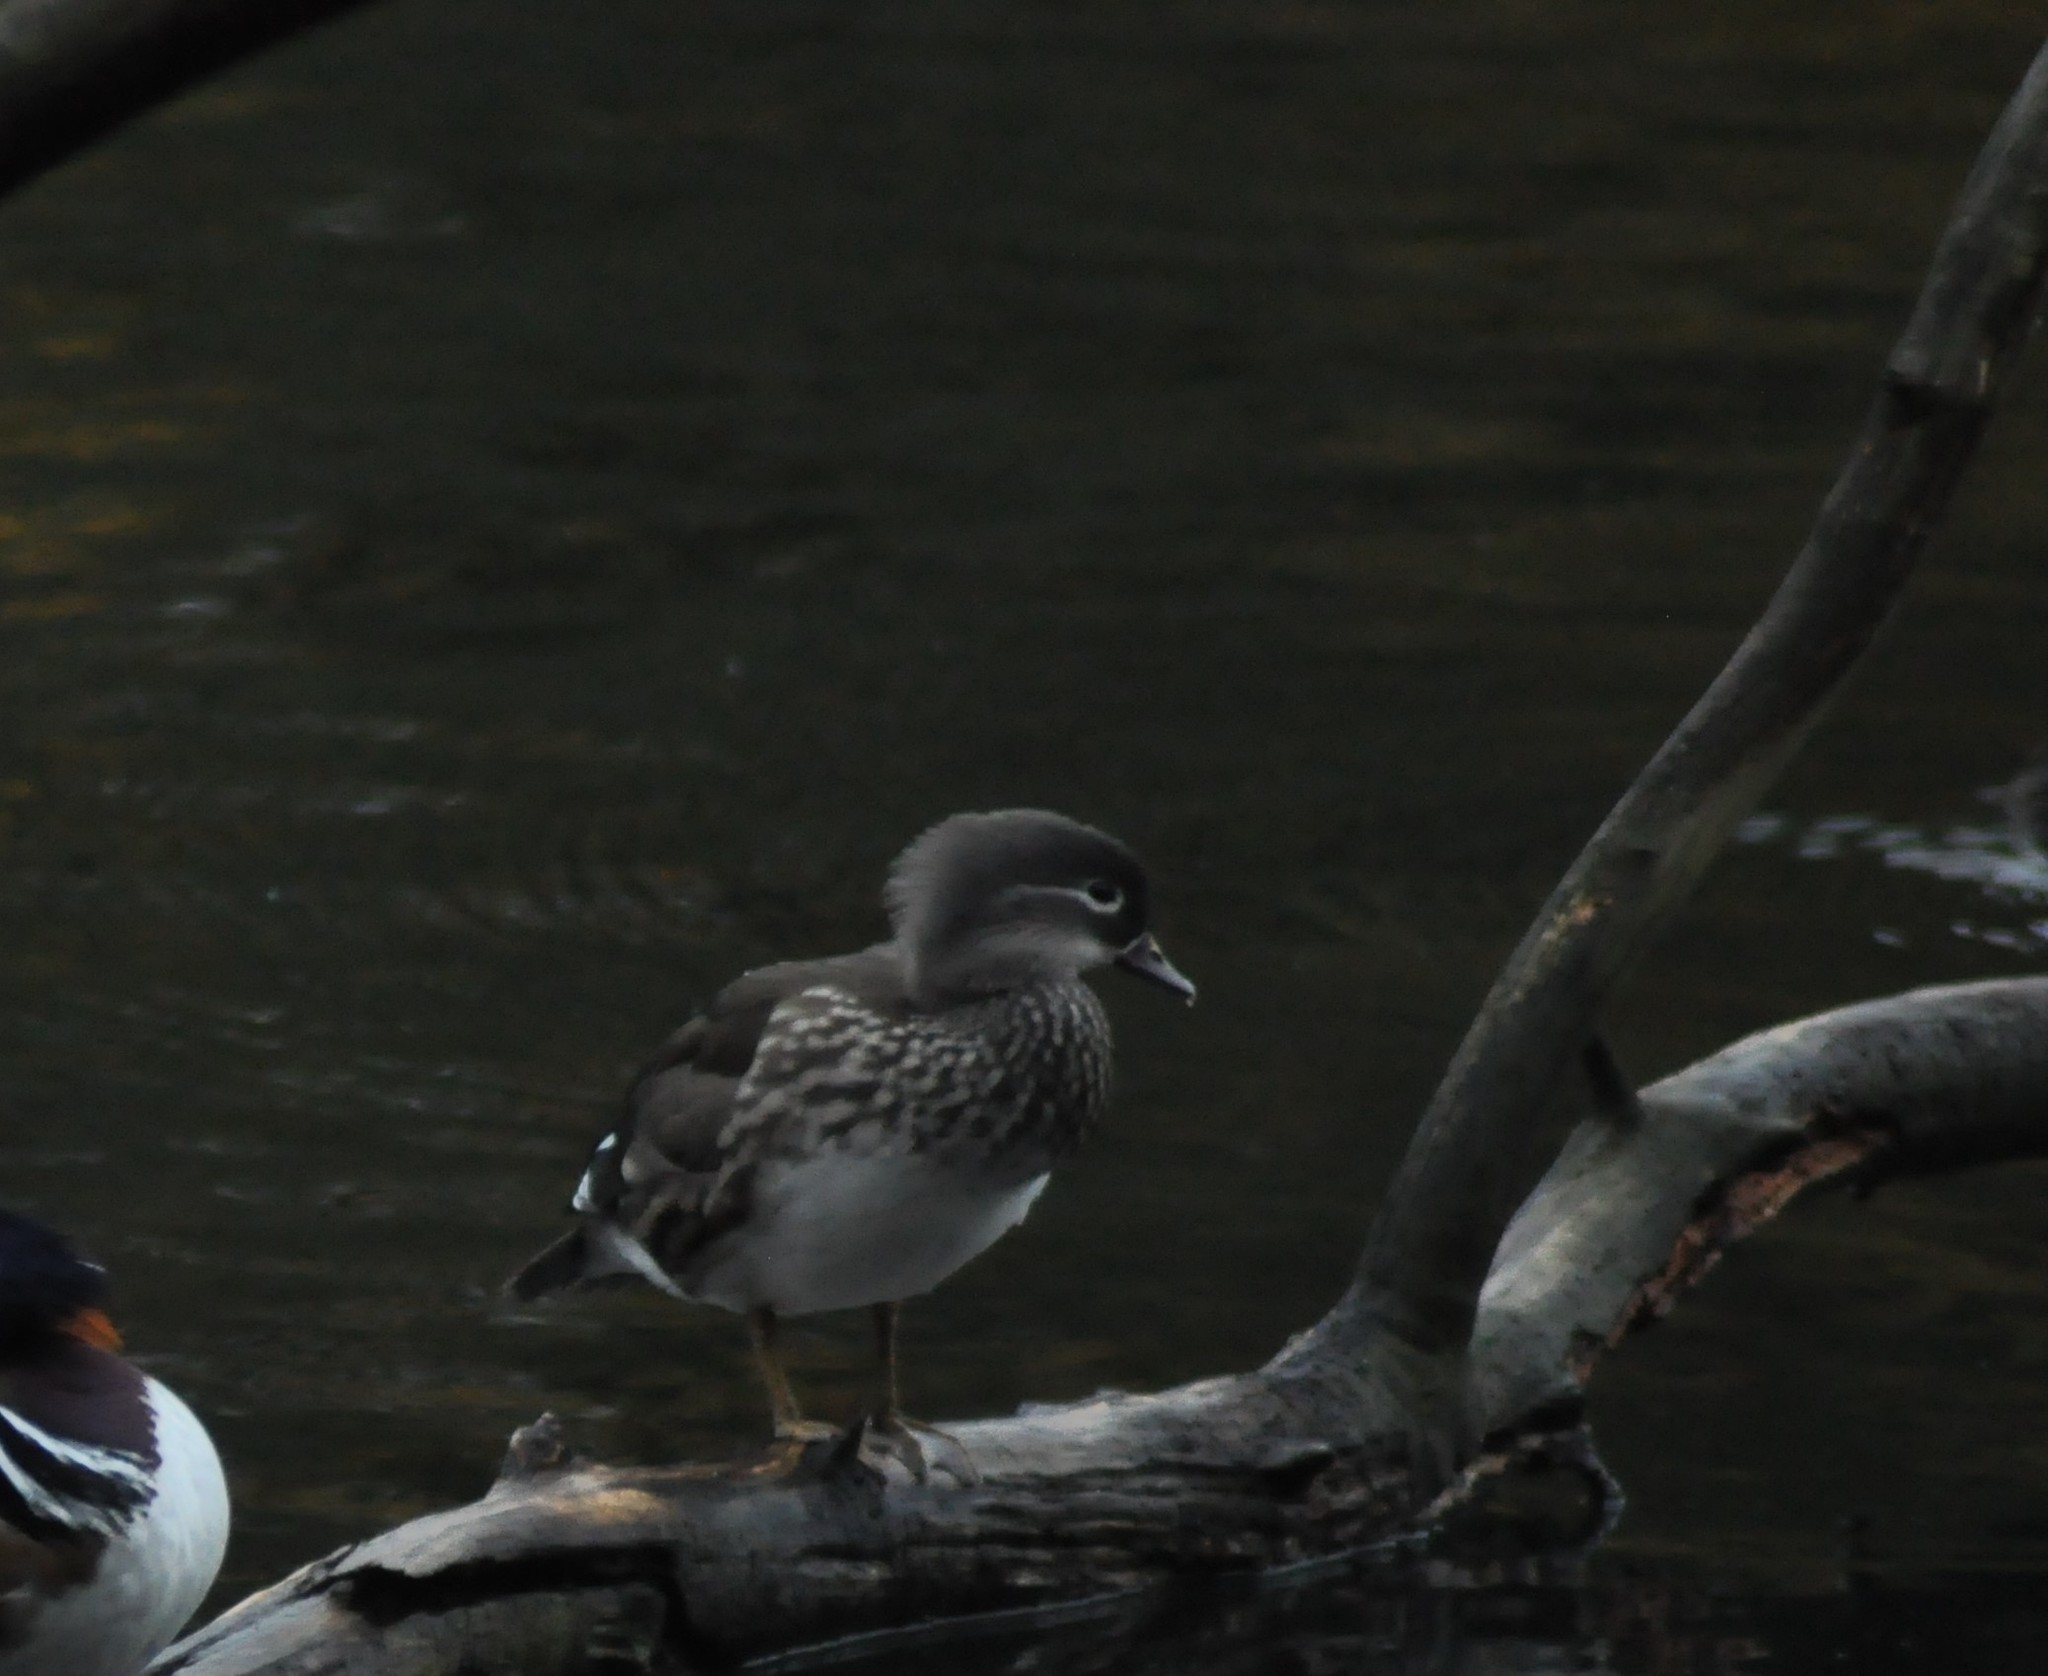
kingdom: Animalia
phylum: Chordata
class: Aves
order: Anseriformes
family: Anatidae
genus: Aix
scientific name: Aix galericulata
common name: Mandarin duck
